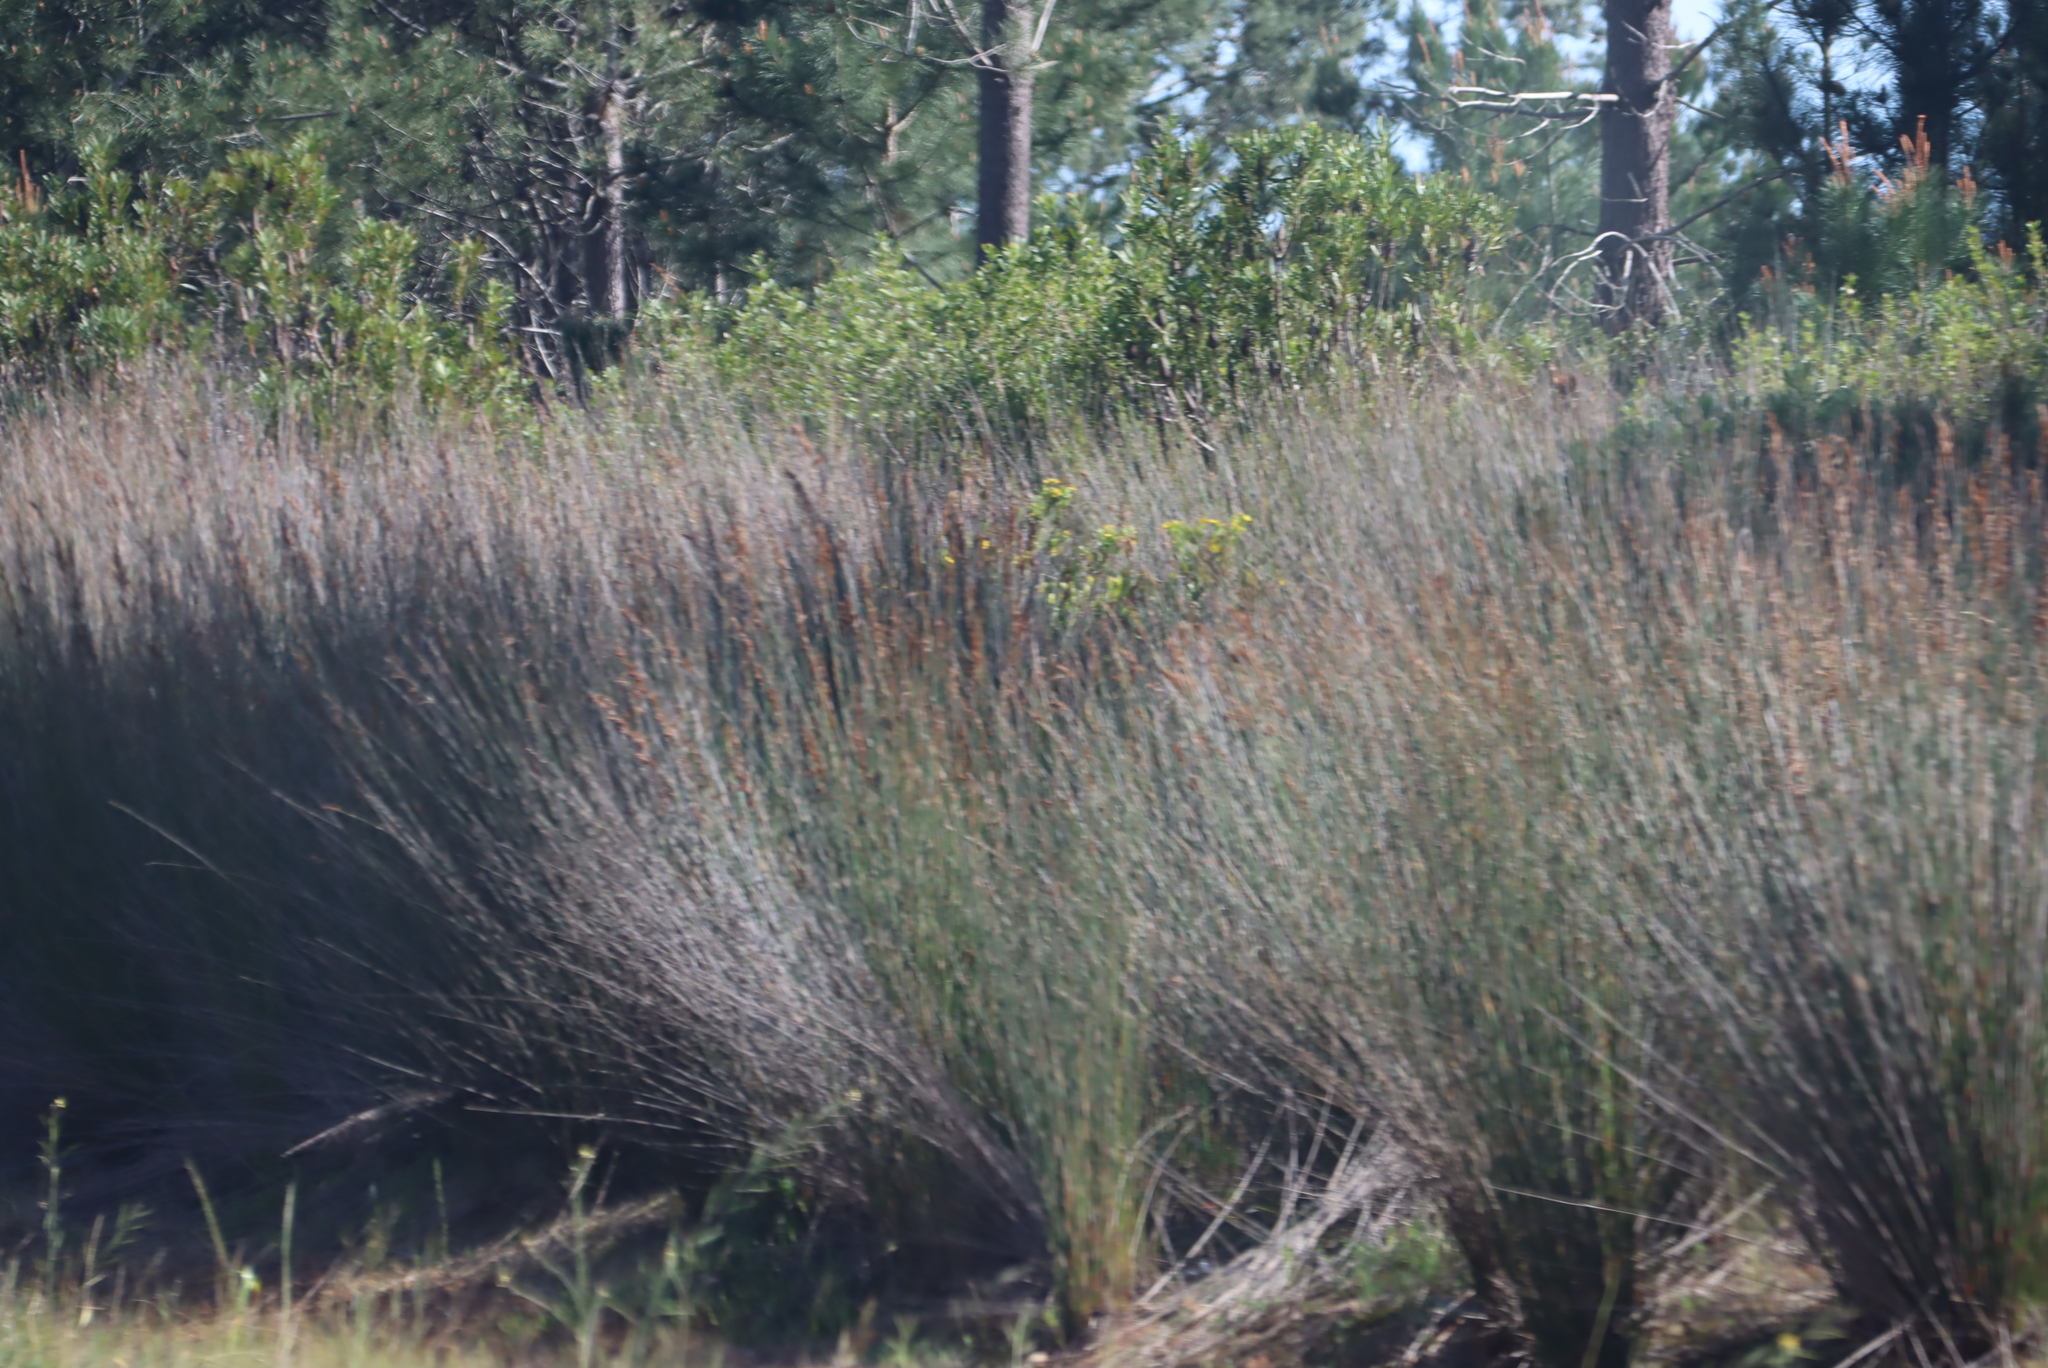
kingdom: Plantae
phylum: Tracheophyta
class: Liliopsida
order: Poales
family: Restionaceae
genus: Thamnochortus
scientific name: Thamnochortus insignis
